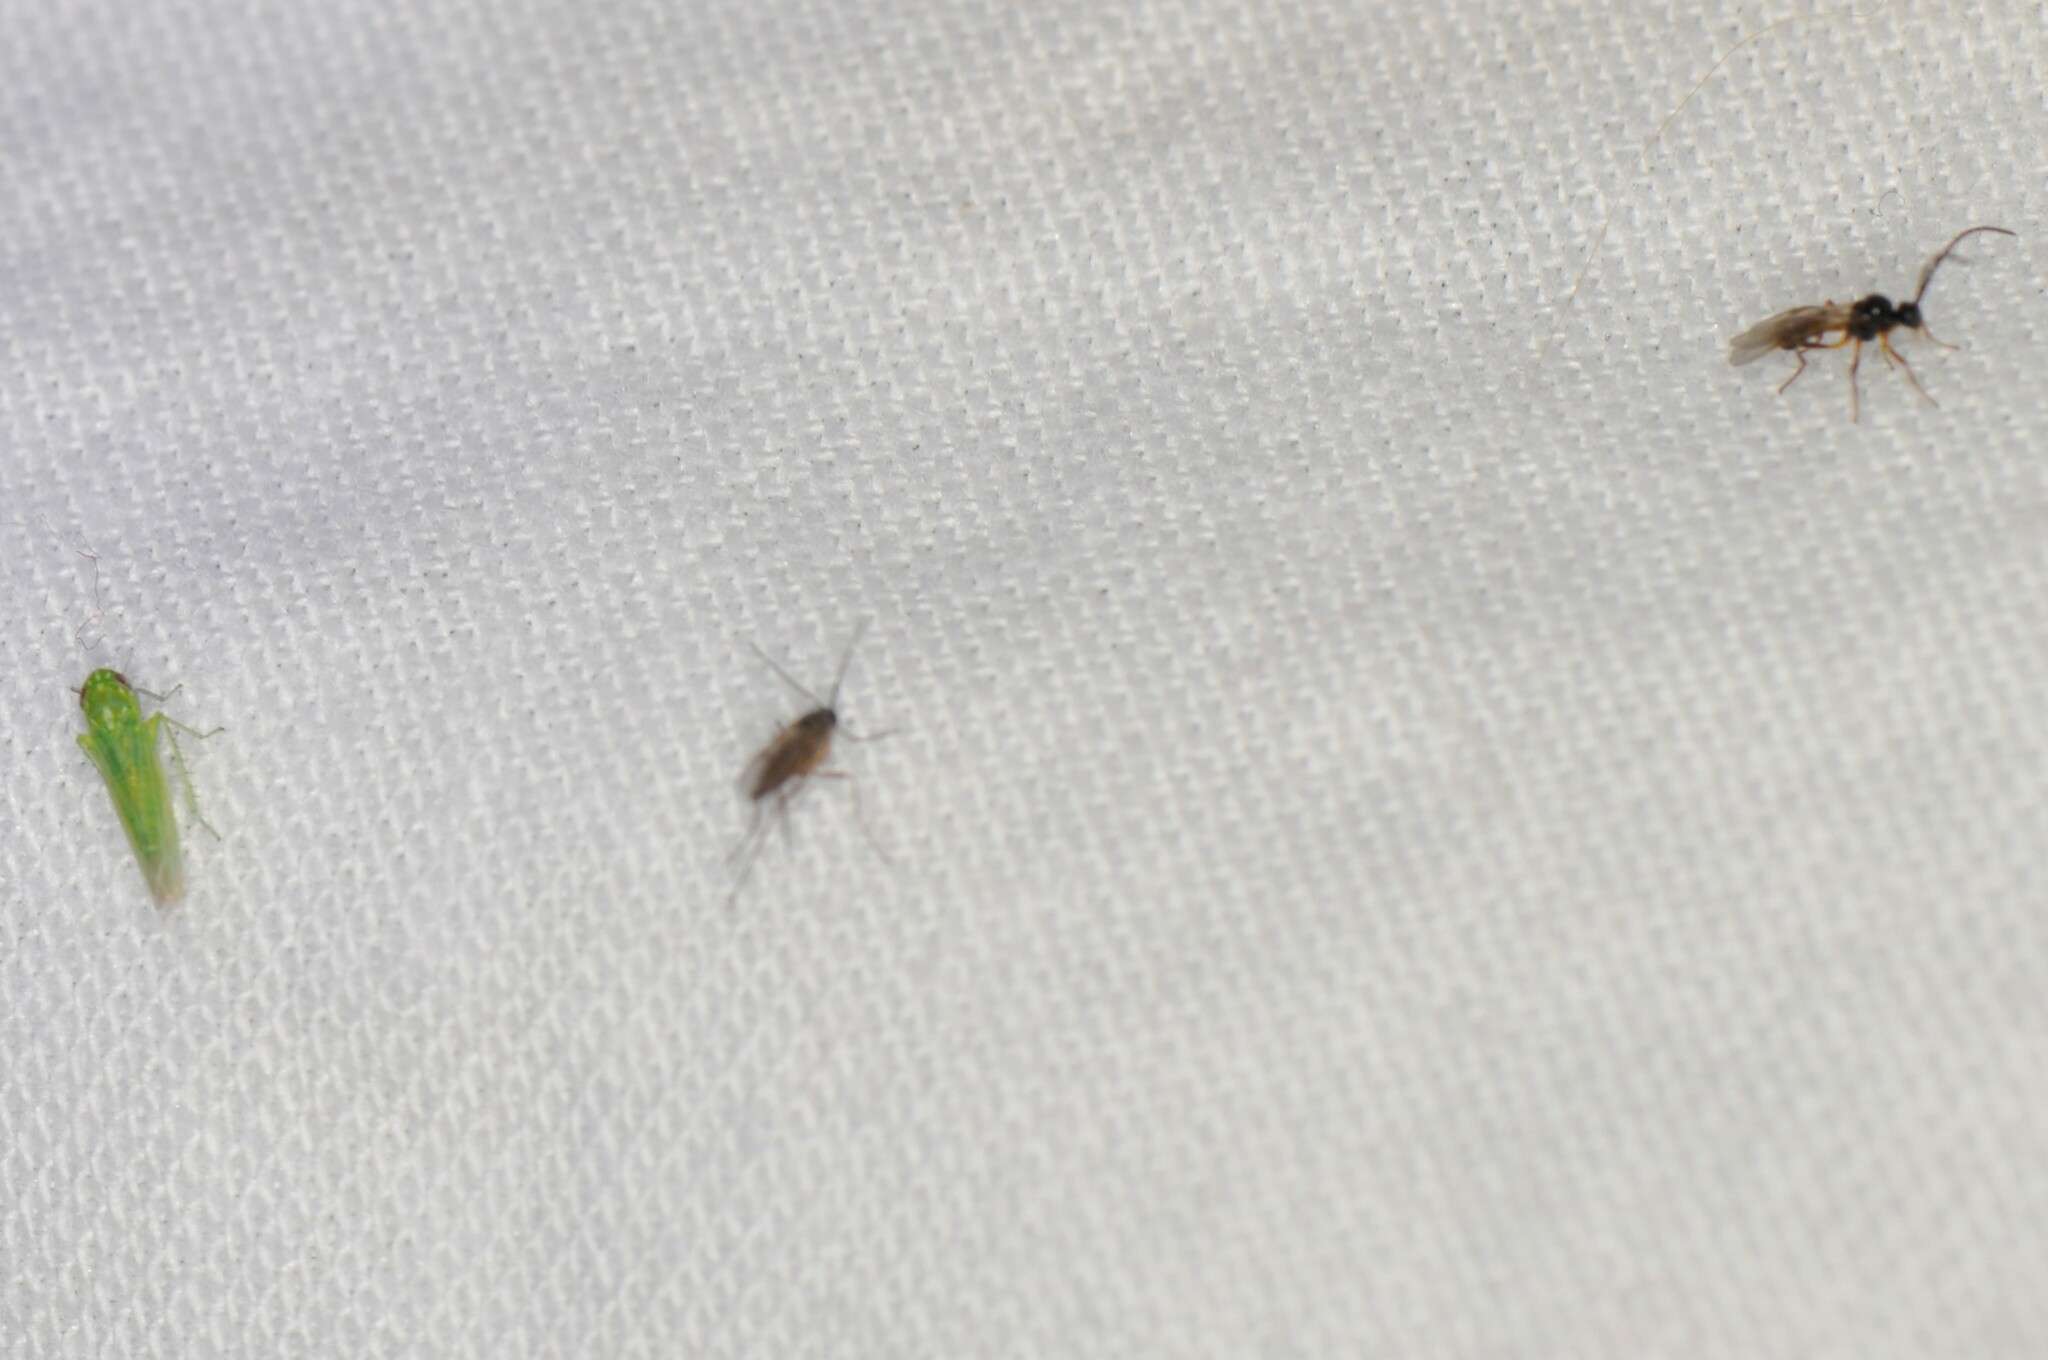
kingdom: Animalia
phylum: Arthropoda
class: Insecta
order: Hemiptera
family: Cicadellidae
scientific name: Cicadellidae
